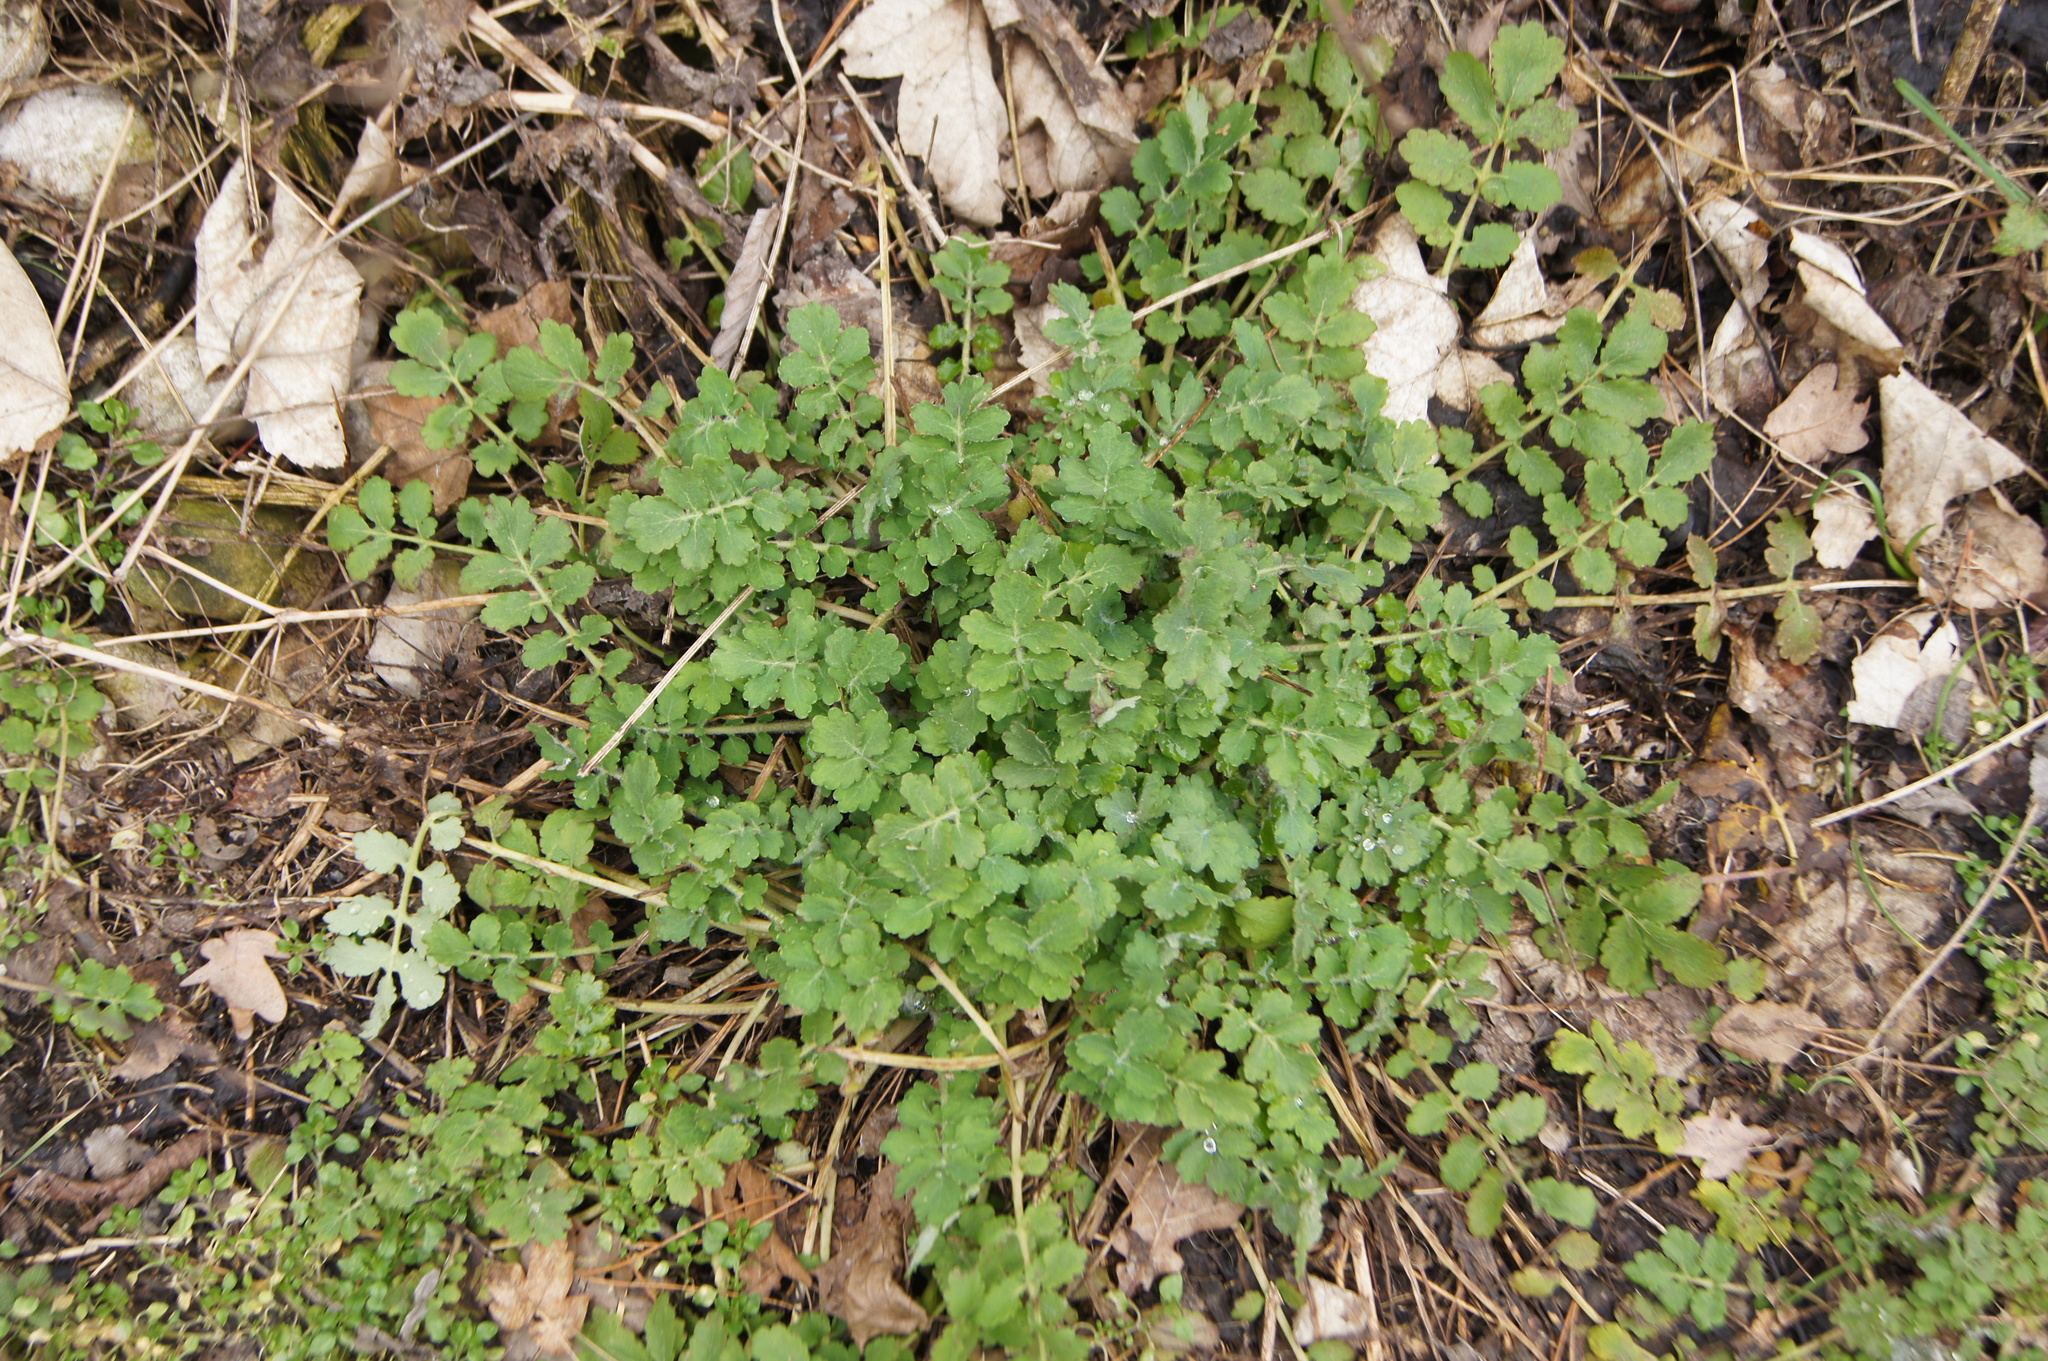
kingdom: Plantae
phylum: Tracheophyta
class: Magnoliopsida
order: Ranunculales
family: Papaveraceae
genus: Chelidonium
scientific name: Chelidonium majus
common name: Greater celandine
